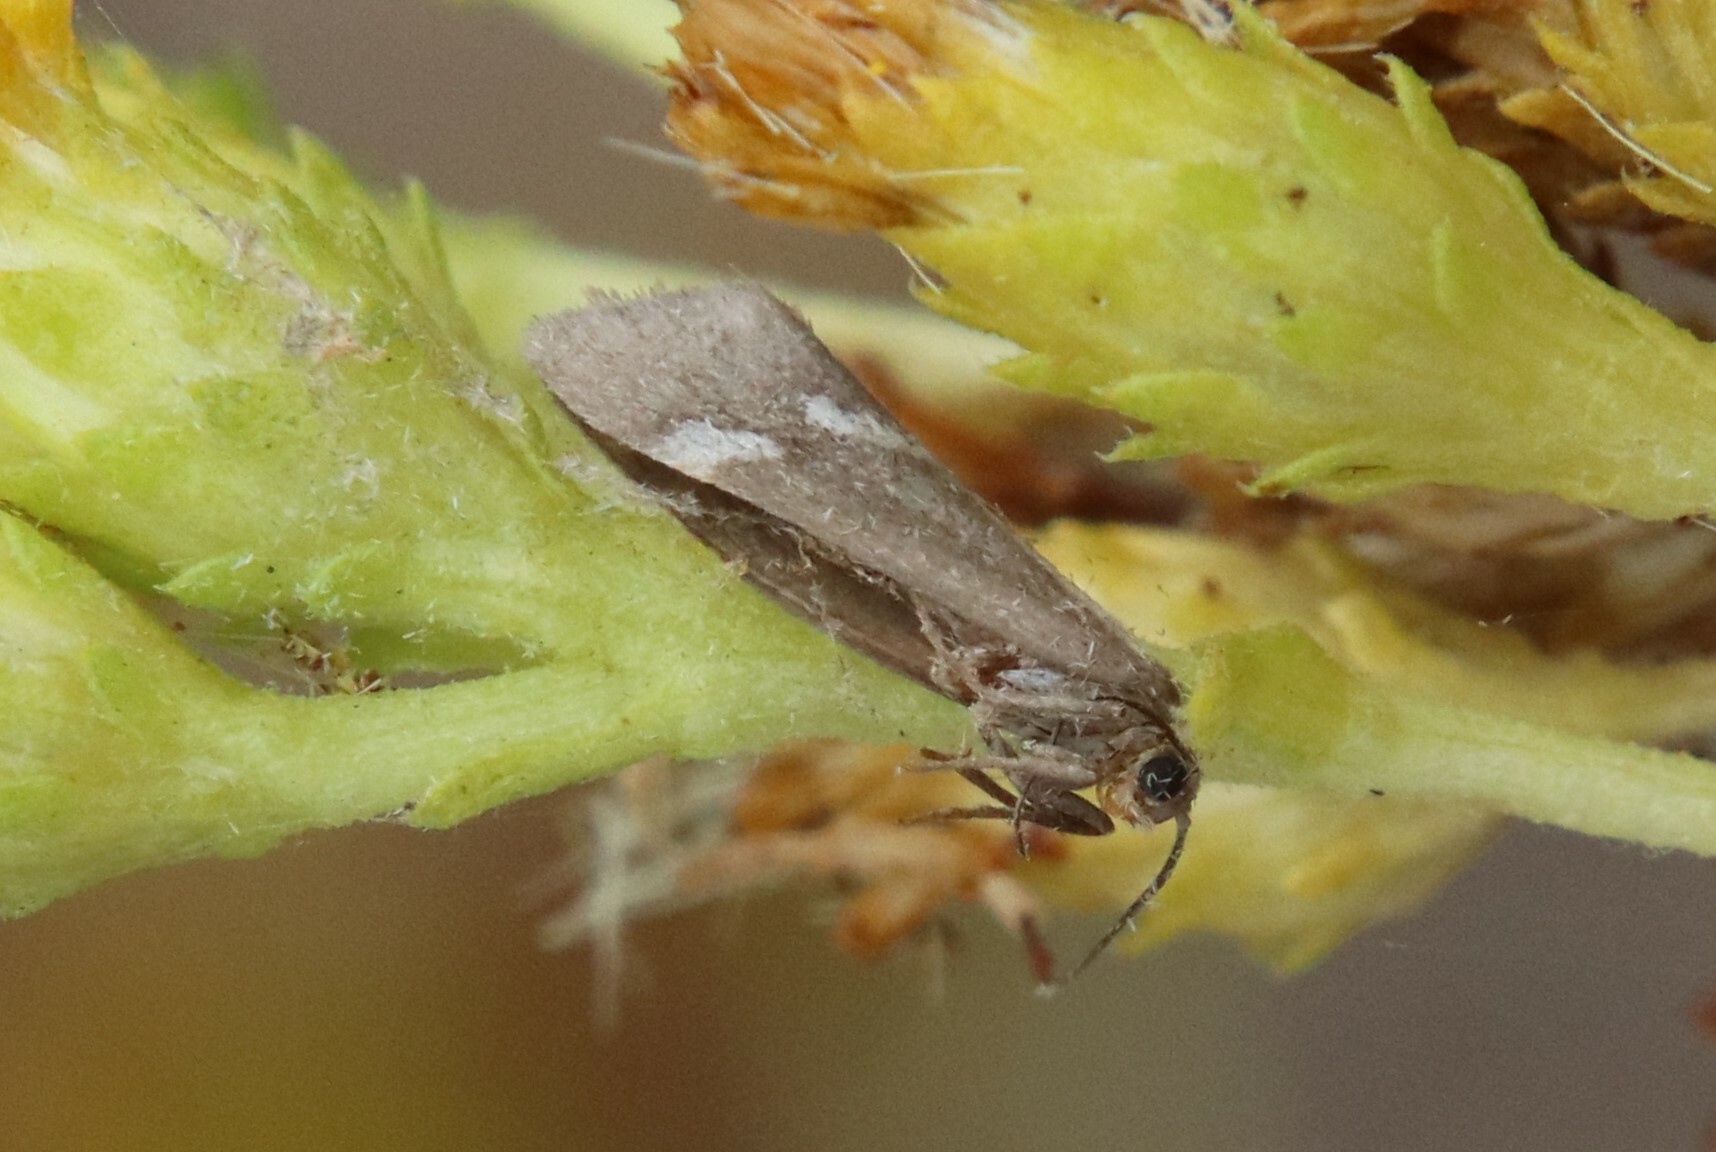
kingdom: Animalia
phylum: Arthropoda
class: Insecta
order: Lepidoptera
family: Erebidae
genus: Cisthene
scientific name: Cisthene liberomacula
